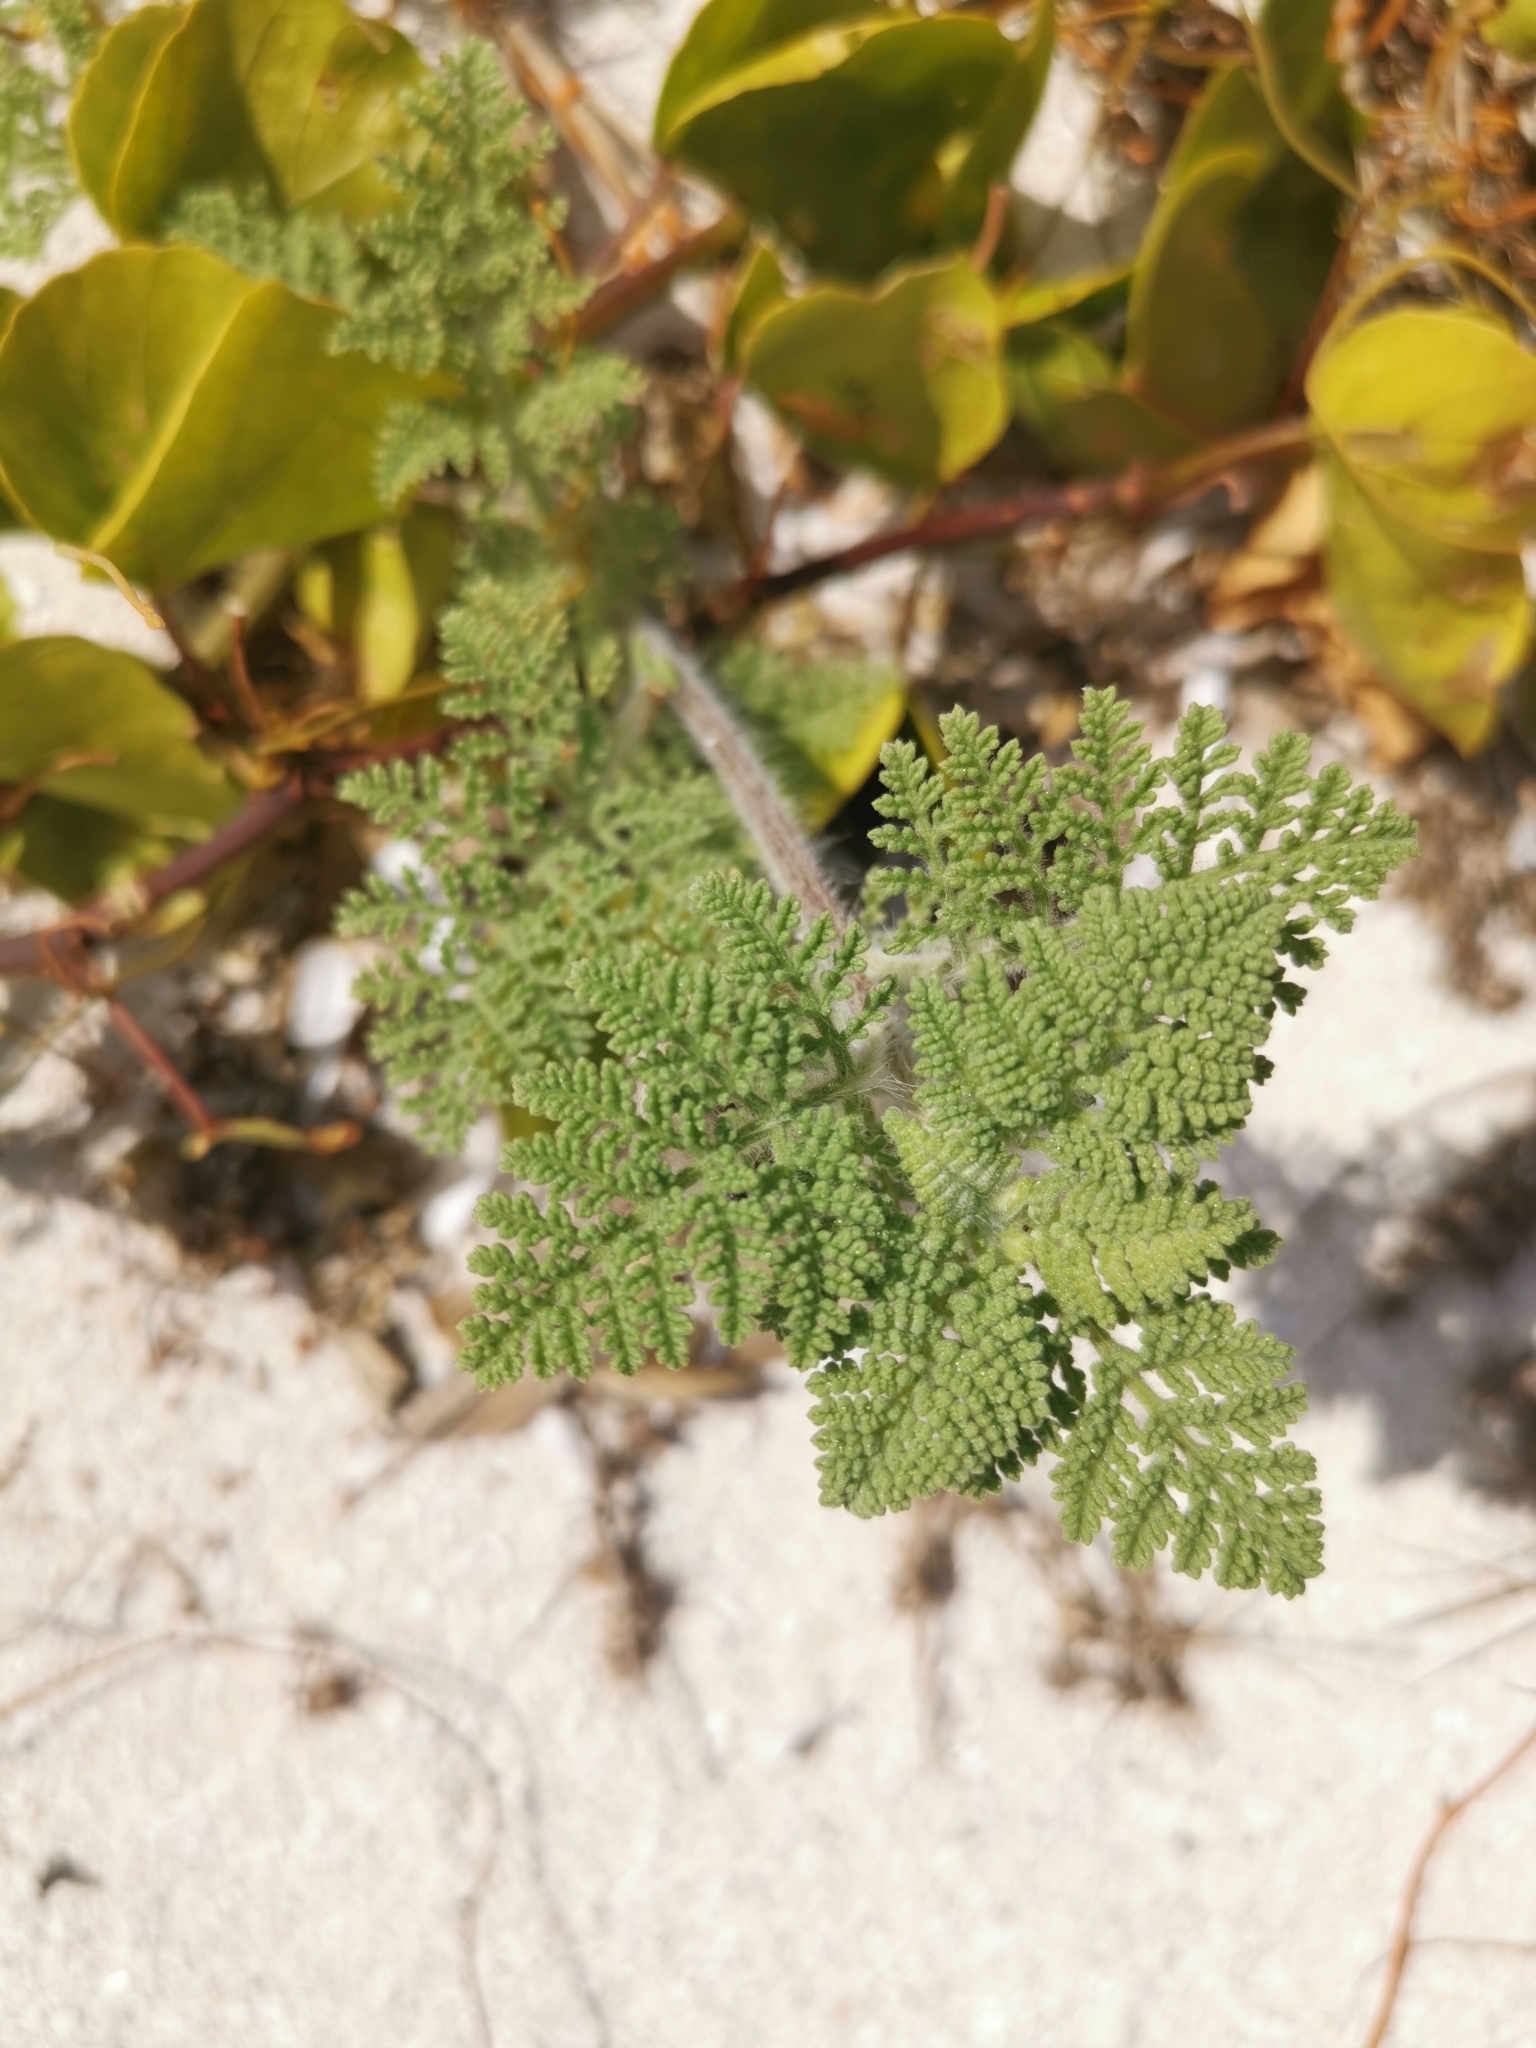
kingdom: Plantae
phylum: Tracheophyta
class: Magnoliopsida
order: Asterales
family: Asteraceae
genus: Ambrosia
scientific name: Ambrosia hispida
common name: Coastal ragweed
